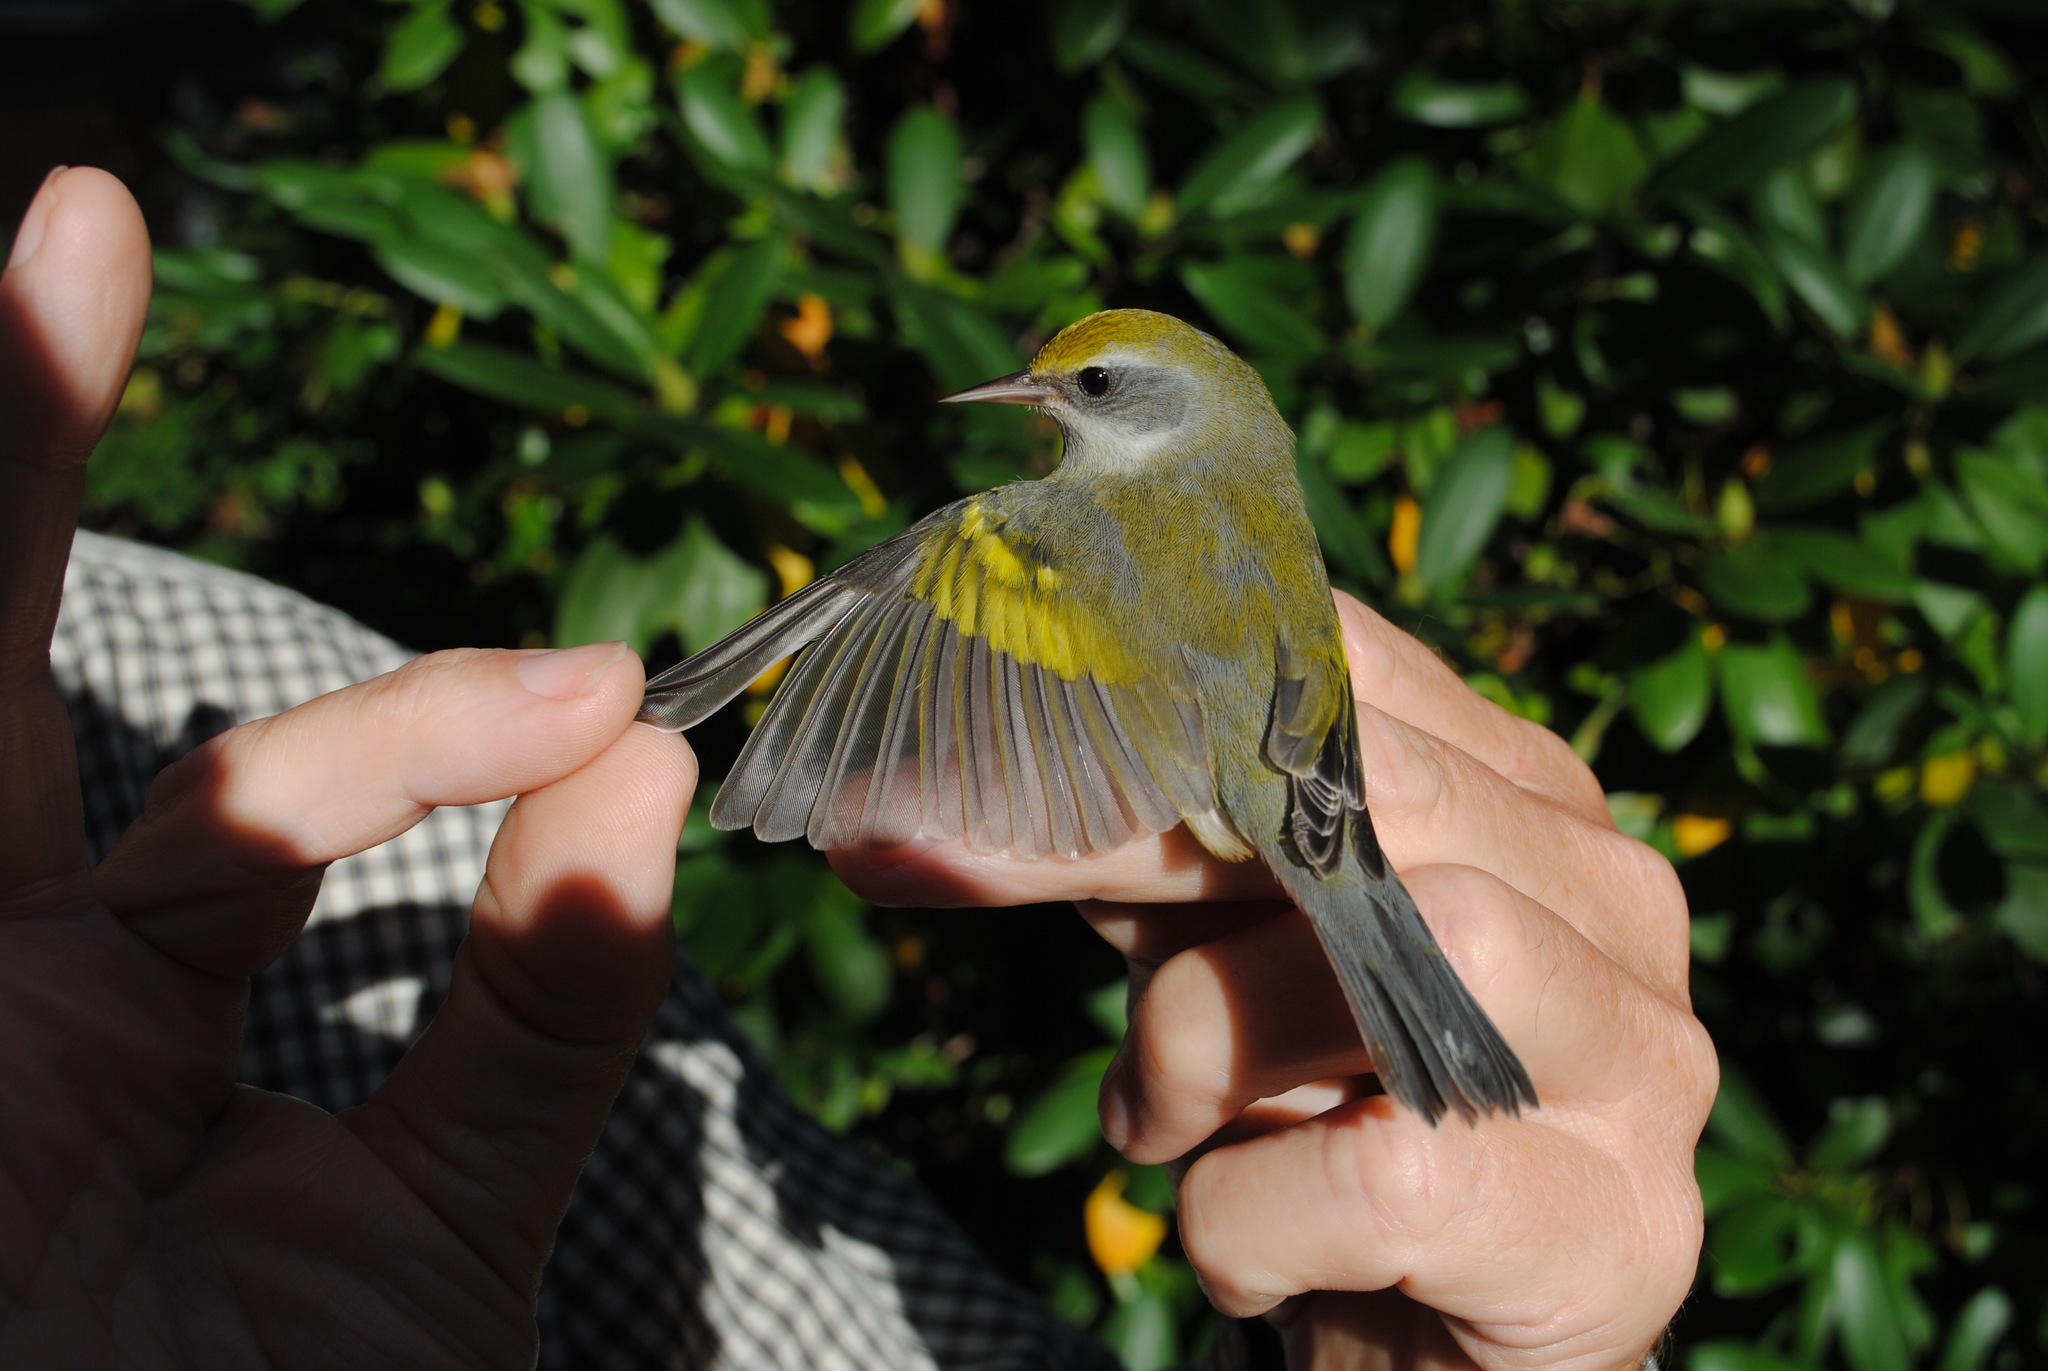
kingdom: Animalia
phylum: Chordata
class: Aves
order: Passeriformes
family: Parulidae
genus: Vermivora
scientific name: Vermivora chrysoptera
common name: Golden-winged warbler
